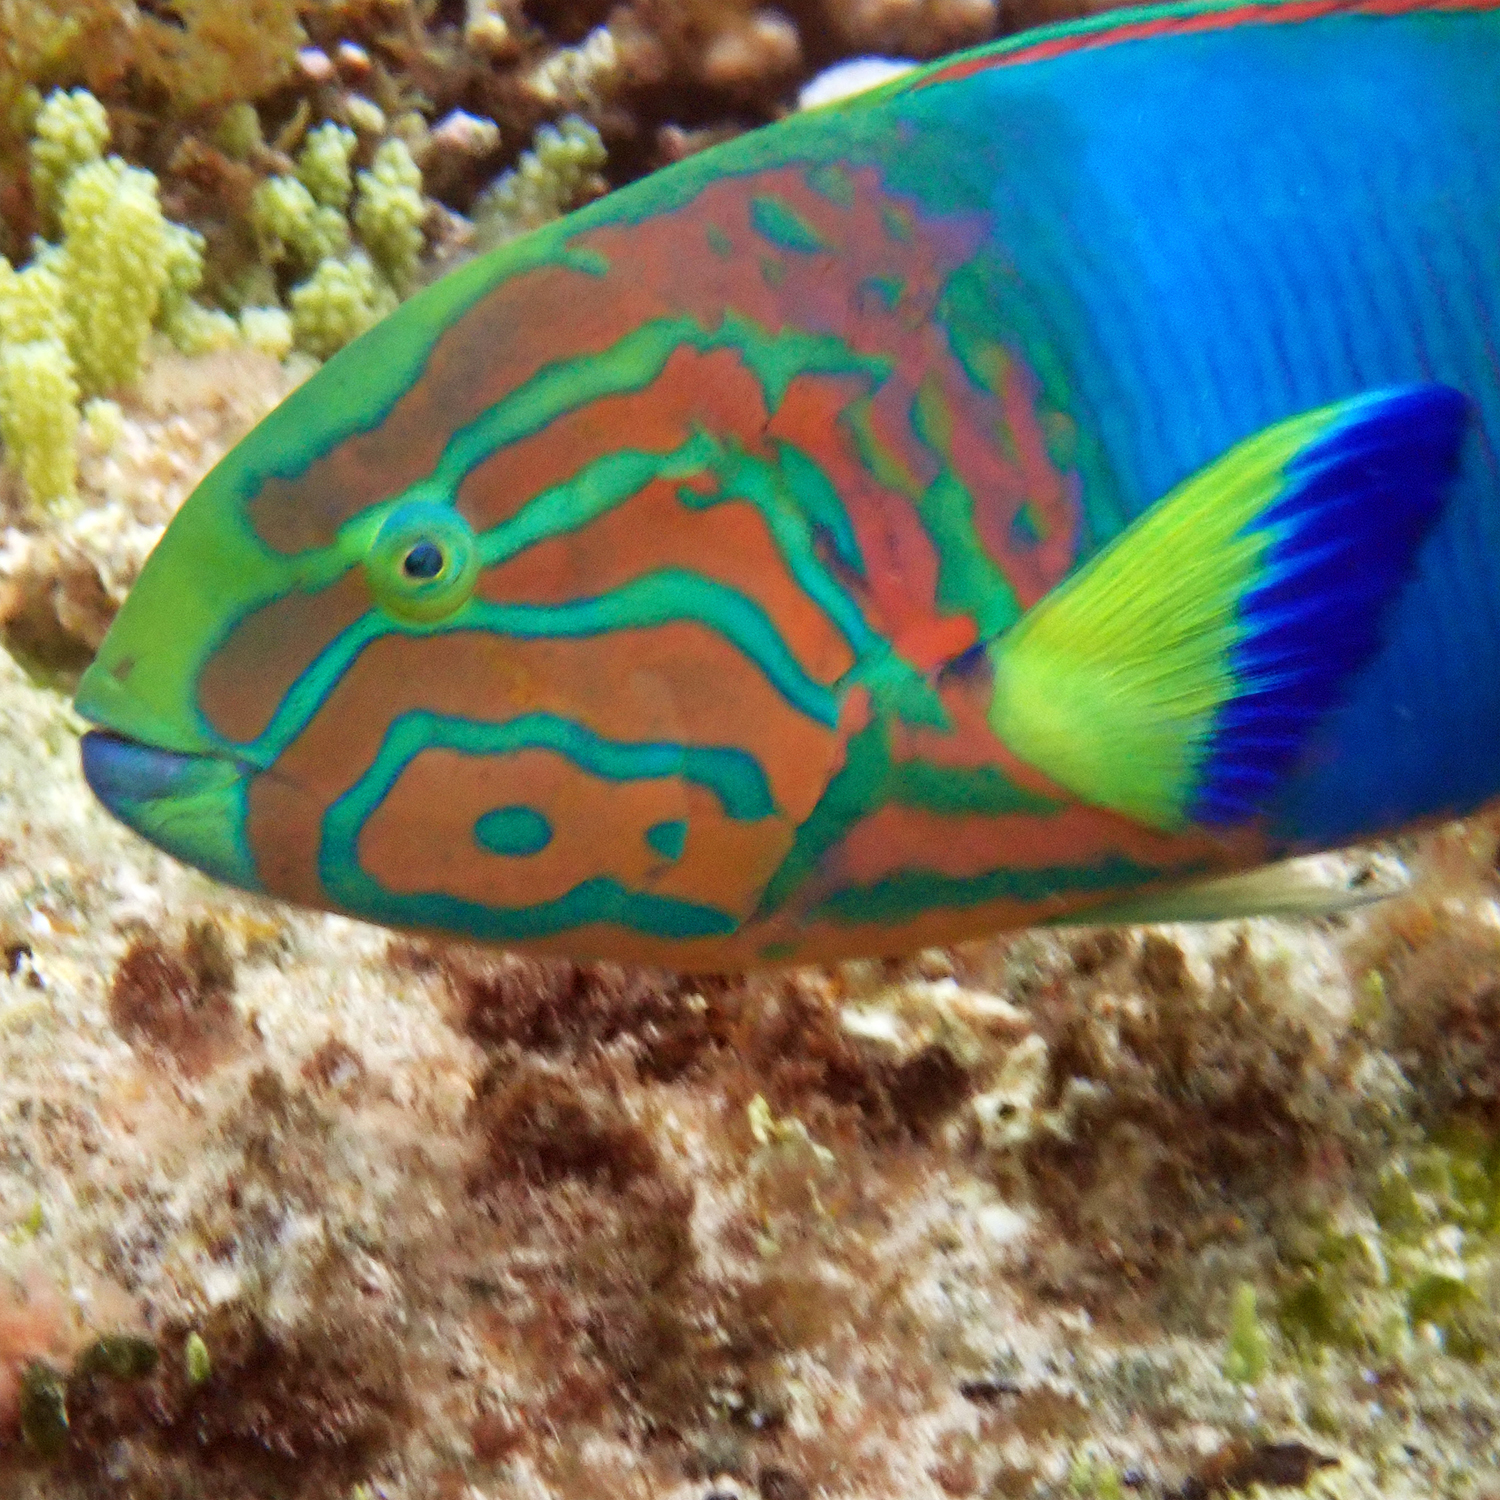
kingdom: Animalia
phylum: Chordata
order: Perciformes
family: Labridae
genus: Thalassoma
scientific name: Thalassoma lutescens
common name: Green moon wrasse
